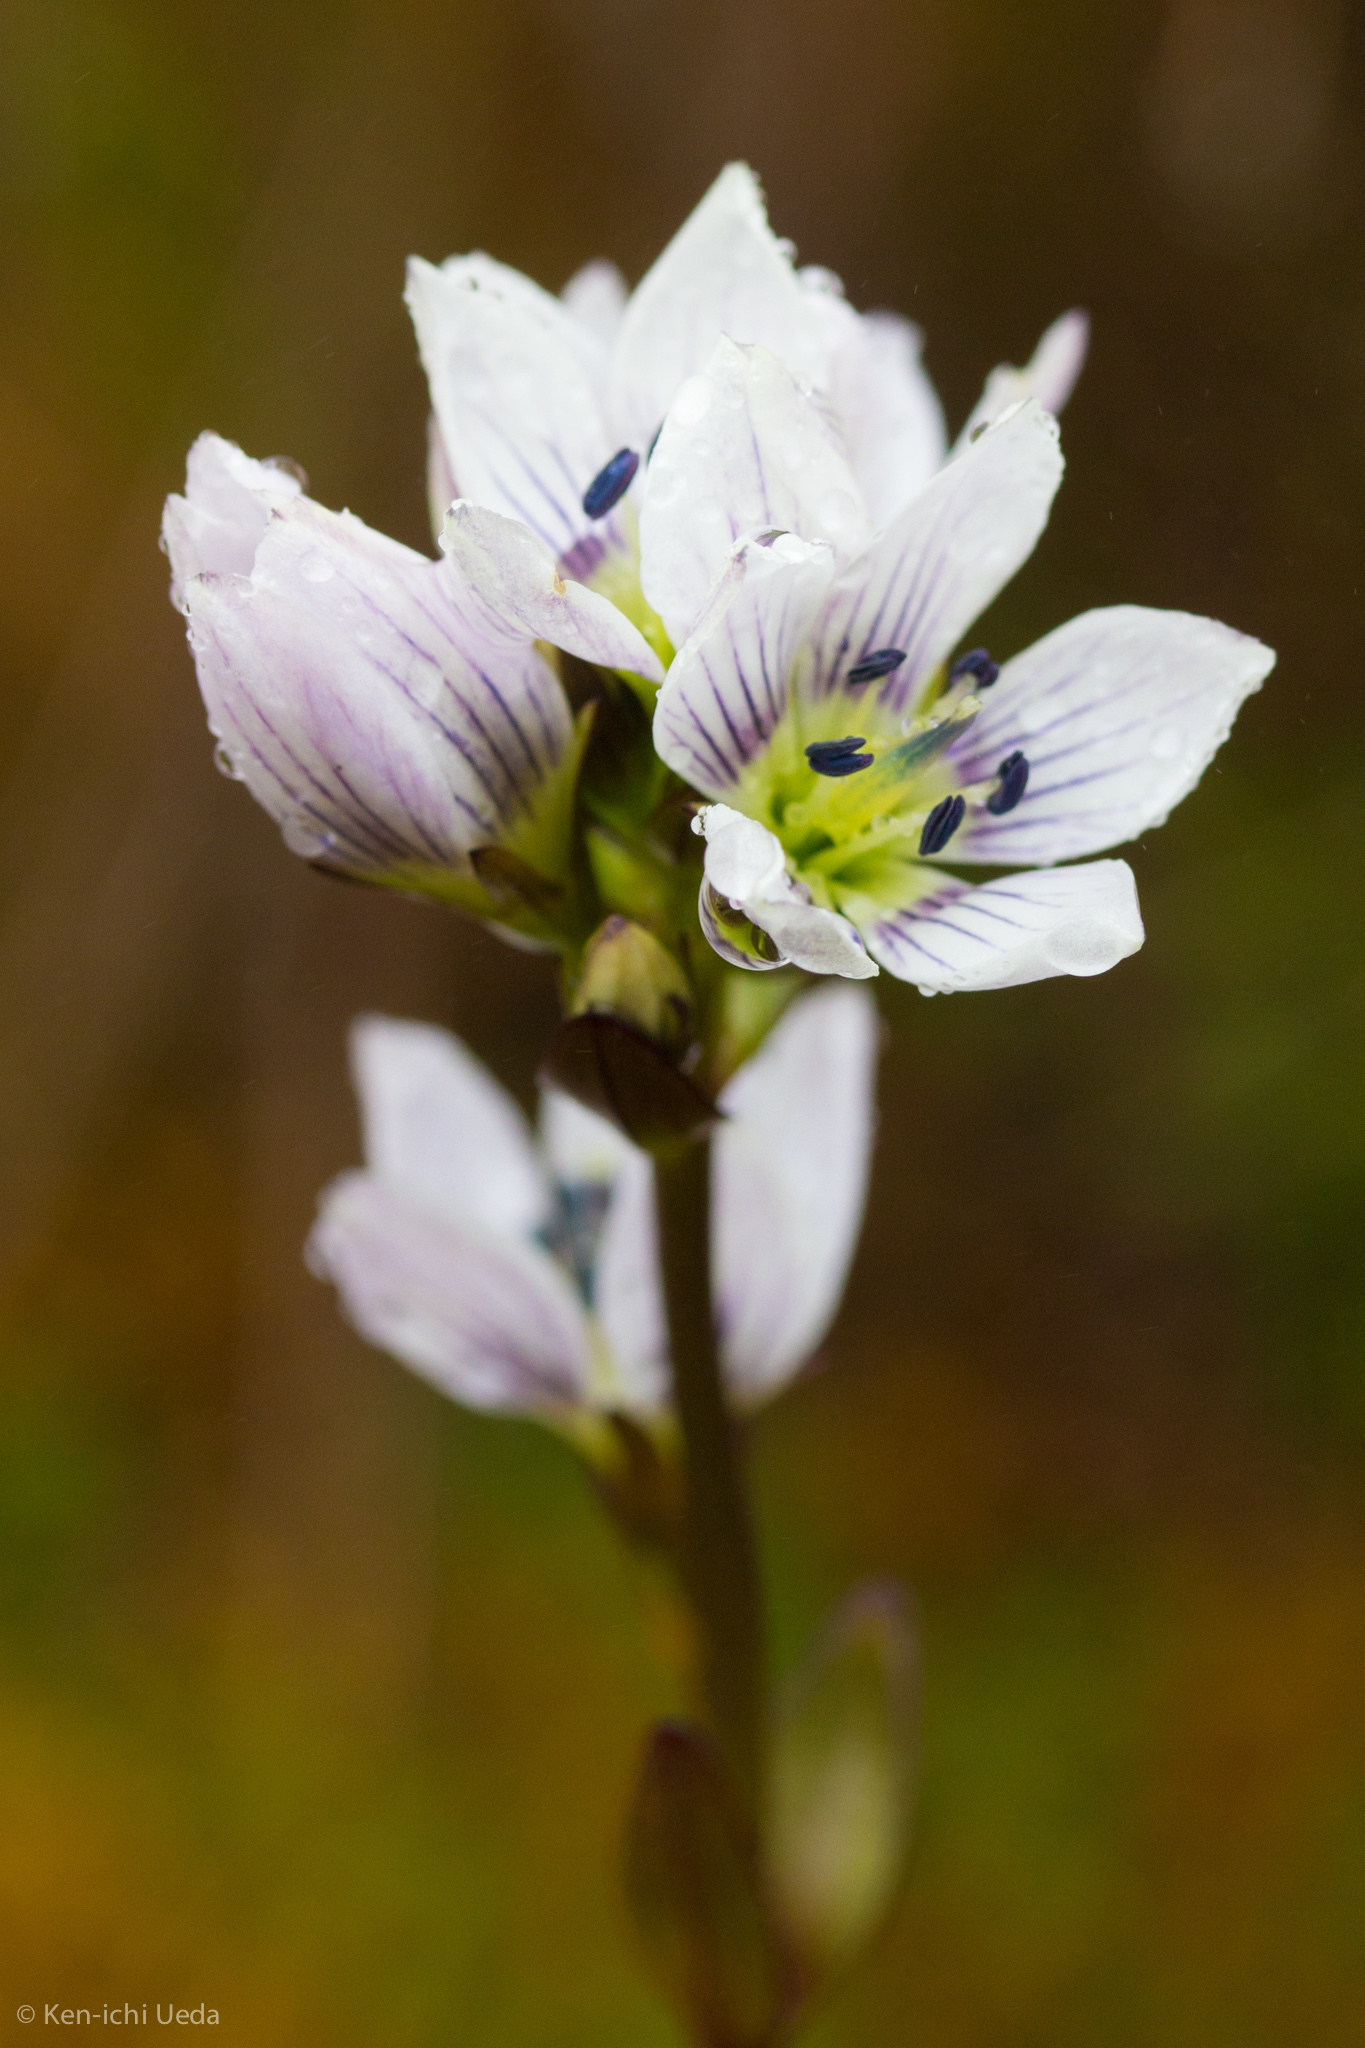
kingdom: Plantae
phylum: Tracheophyta
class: Magnoliopsida
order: Gentianales
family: Gentianaceae
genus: Gentianella
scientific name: Gentianella corymbosa
